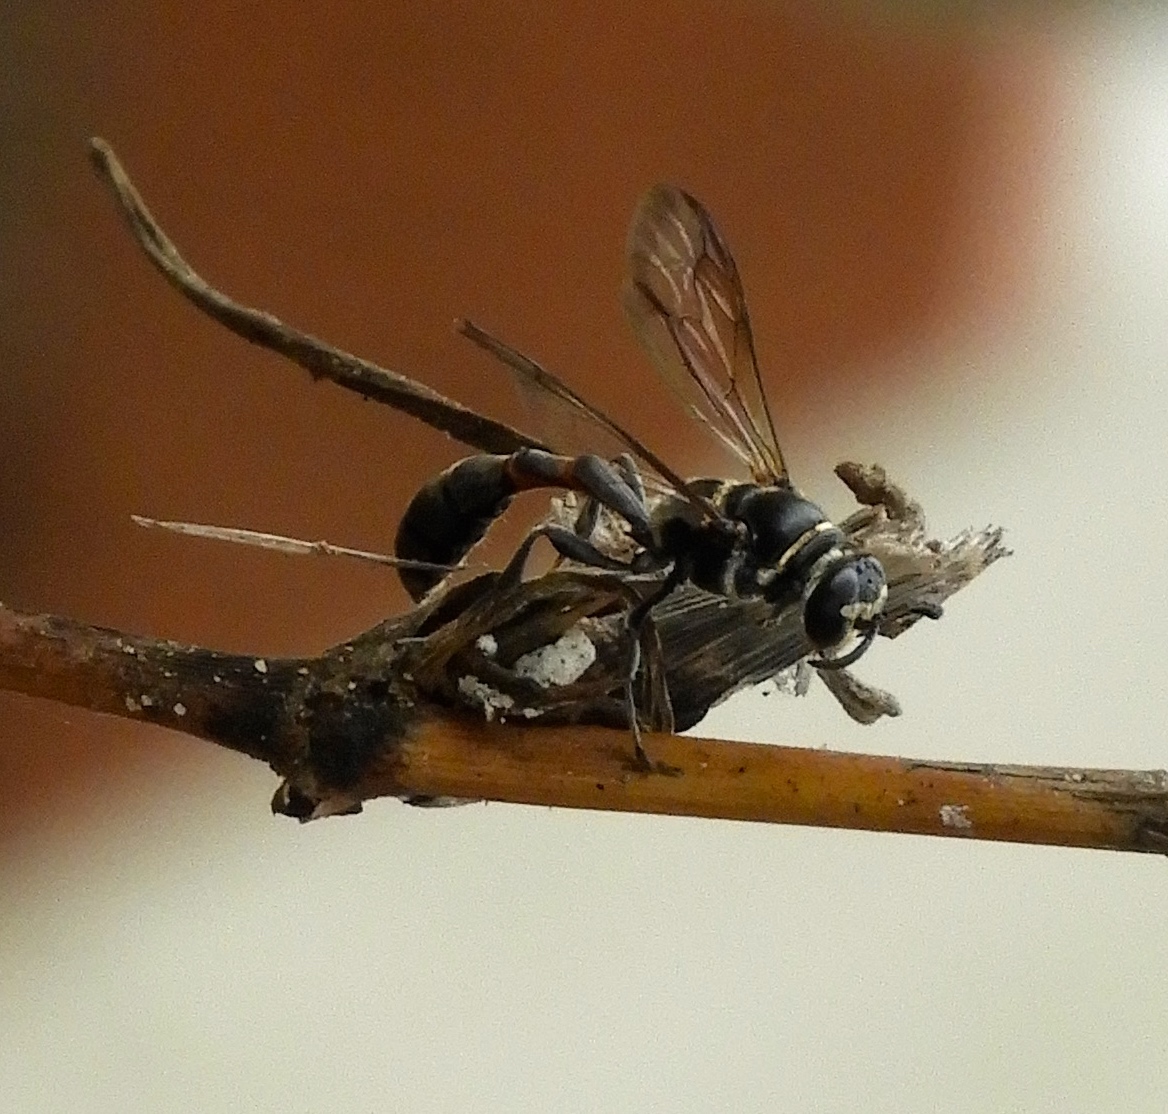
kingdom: Animalia
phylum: Arthropoda
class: Insecta
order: Hymenoptera
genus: Trypargilum
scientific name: Trypargilum
